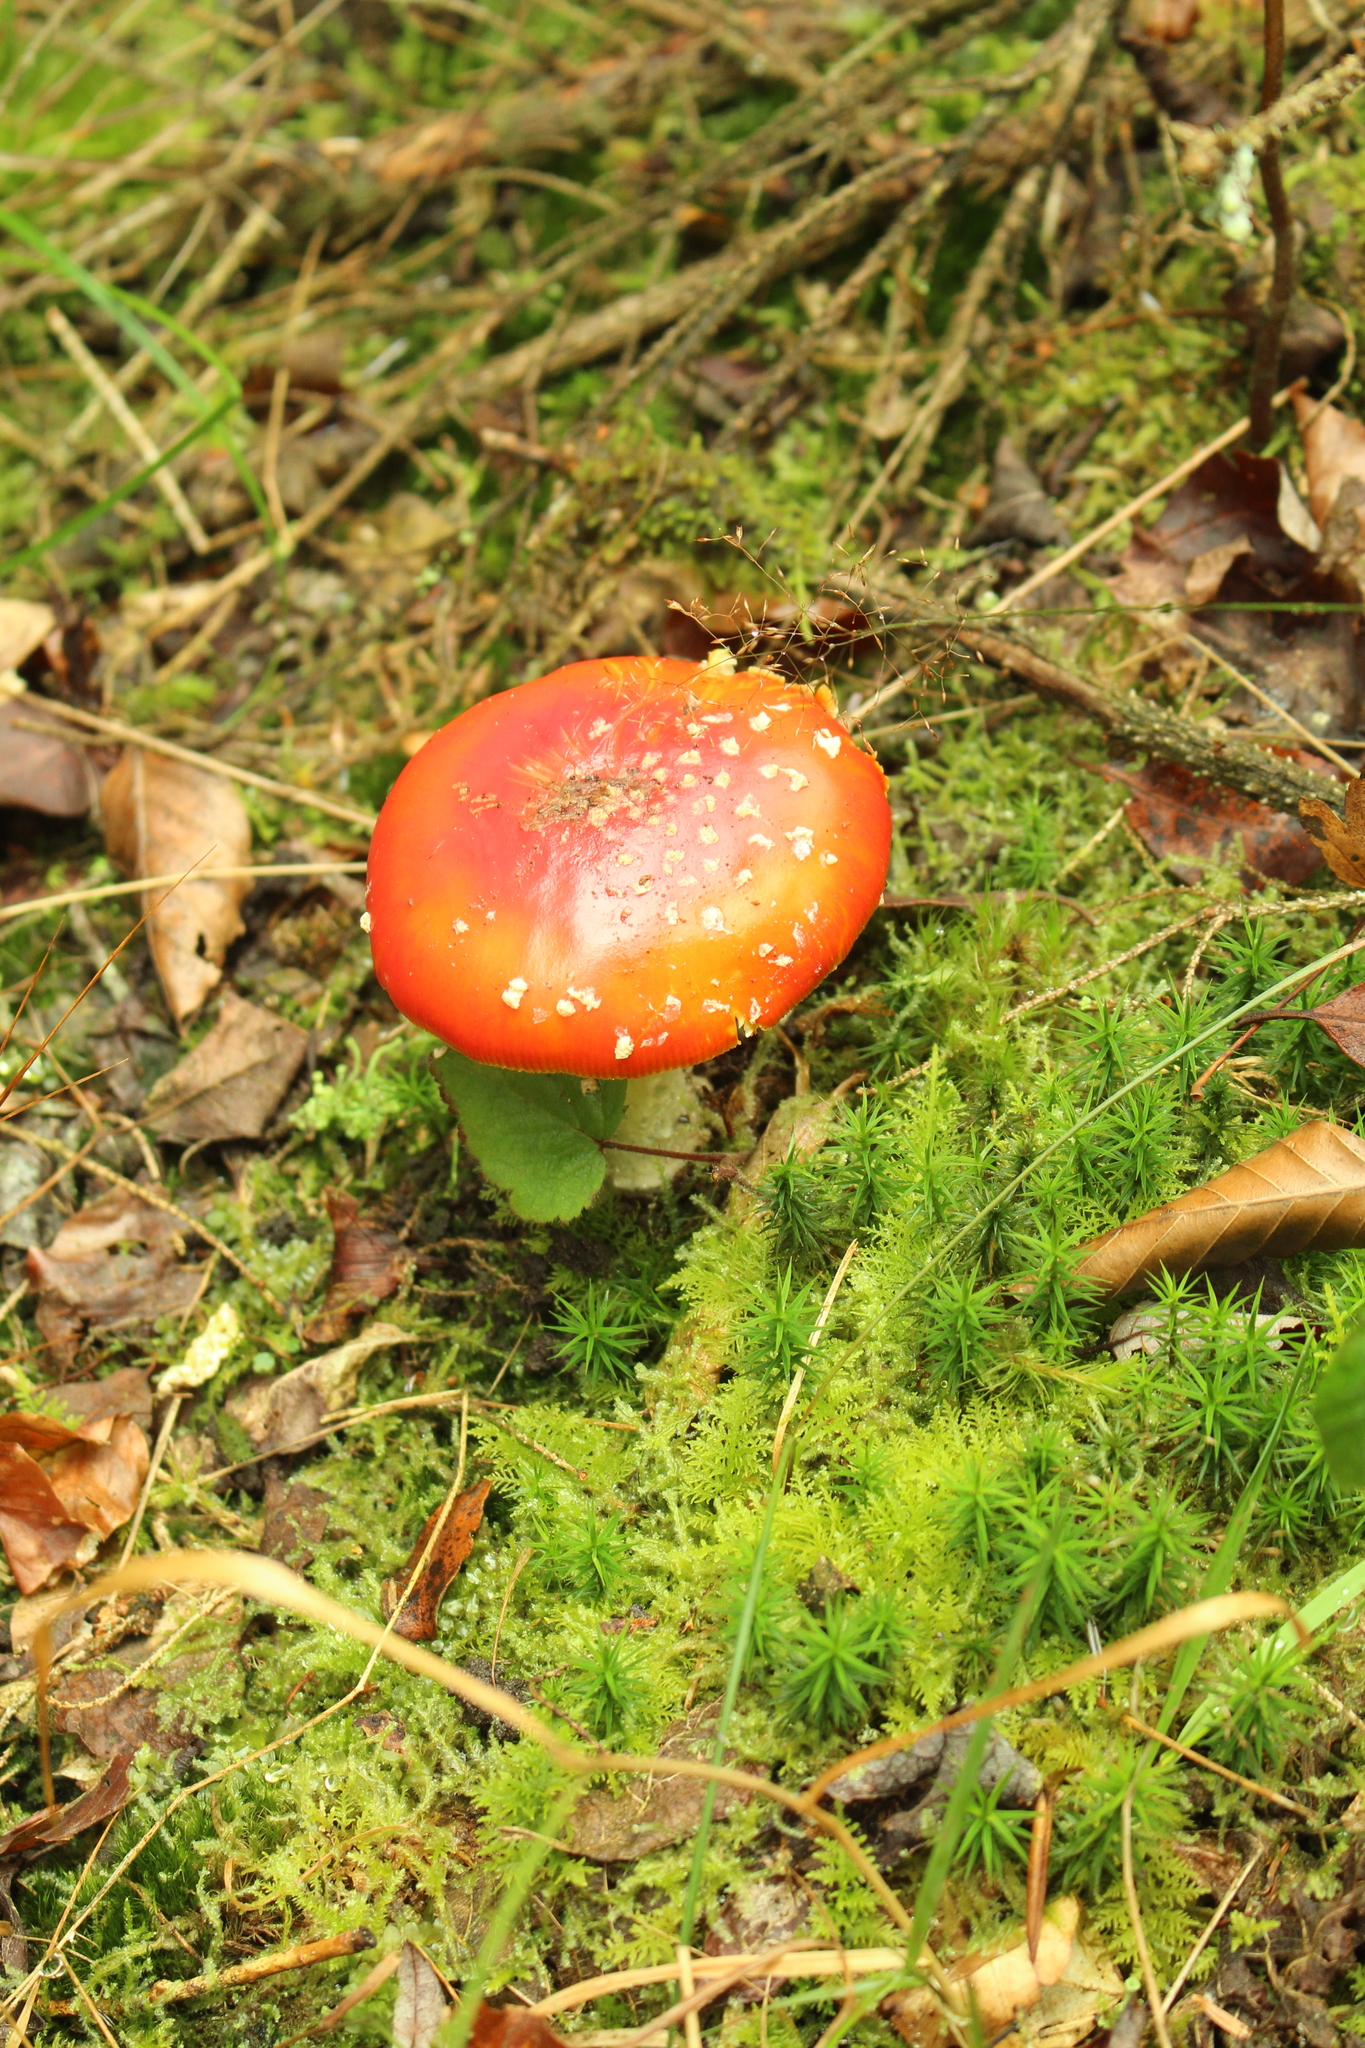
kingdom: Fungi
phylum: Basidiomycota
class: Agaricomycetes
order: Agaricales
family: Amanitaceae
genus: Amanita
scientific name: Amanita muscaria
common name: Fly agaric
